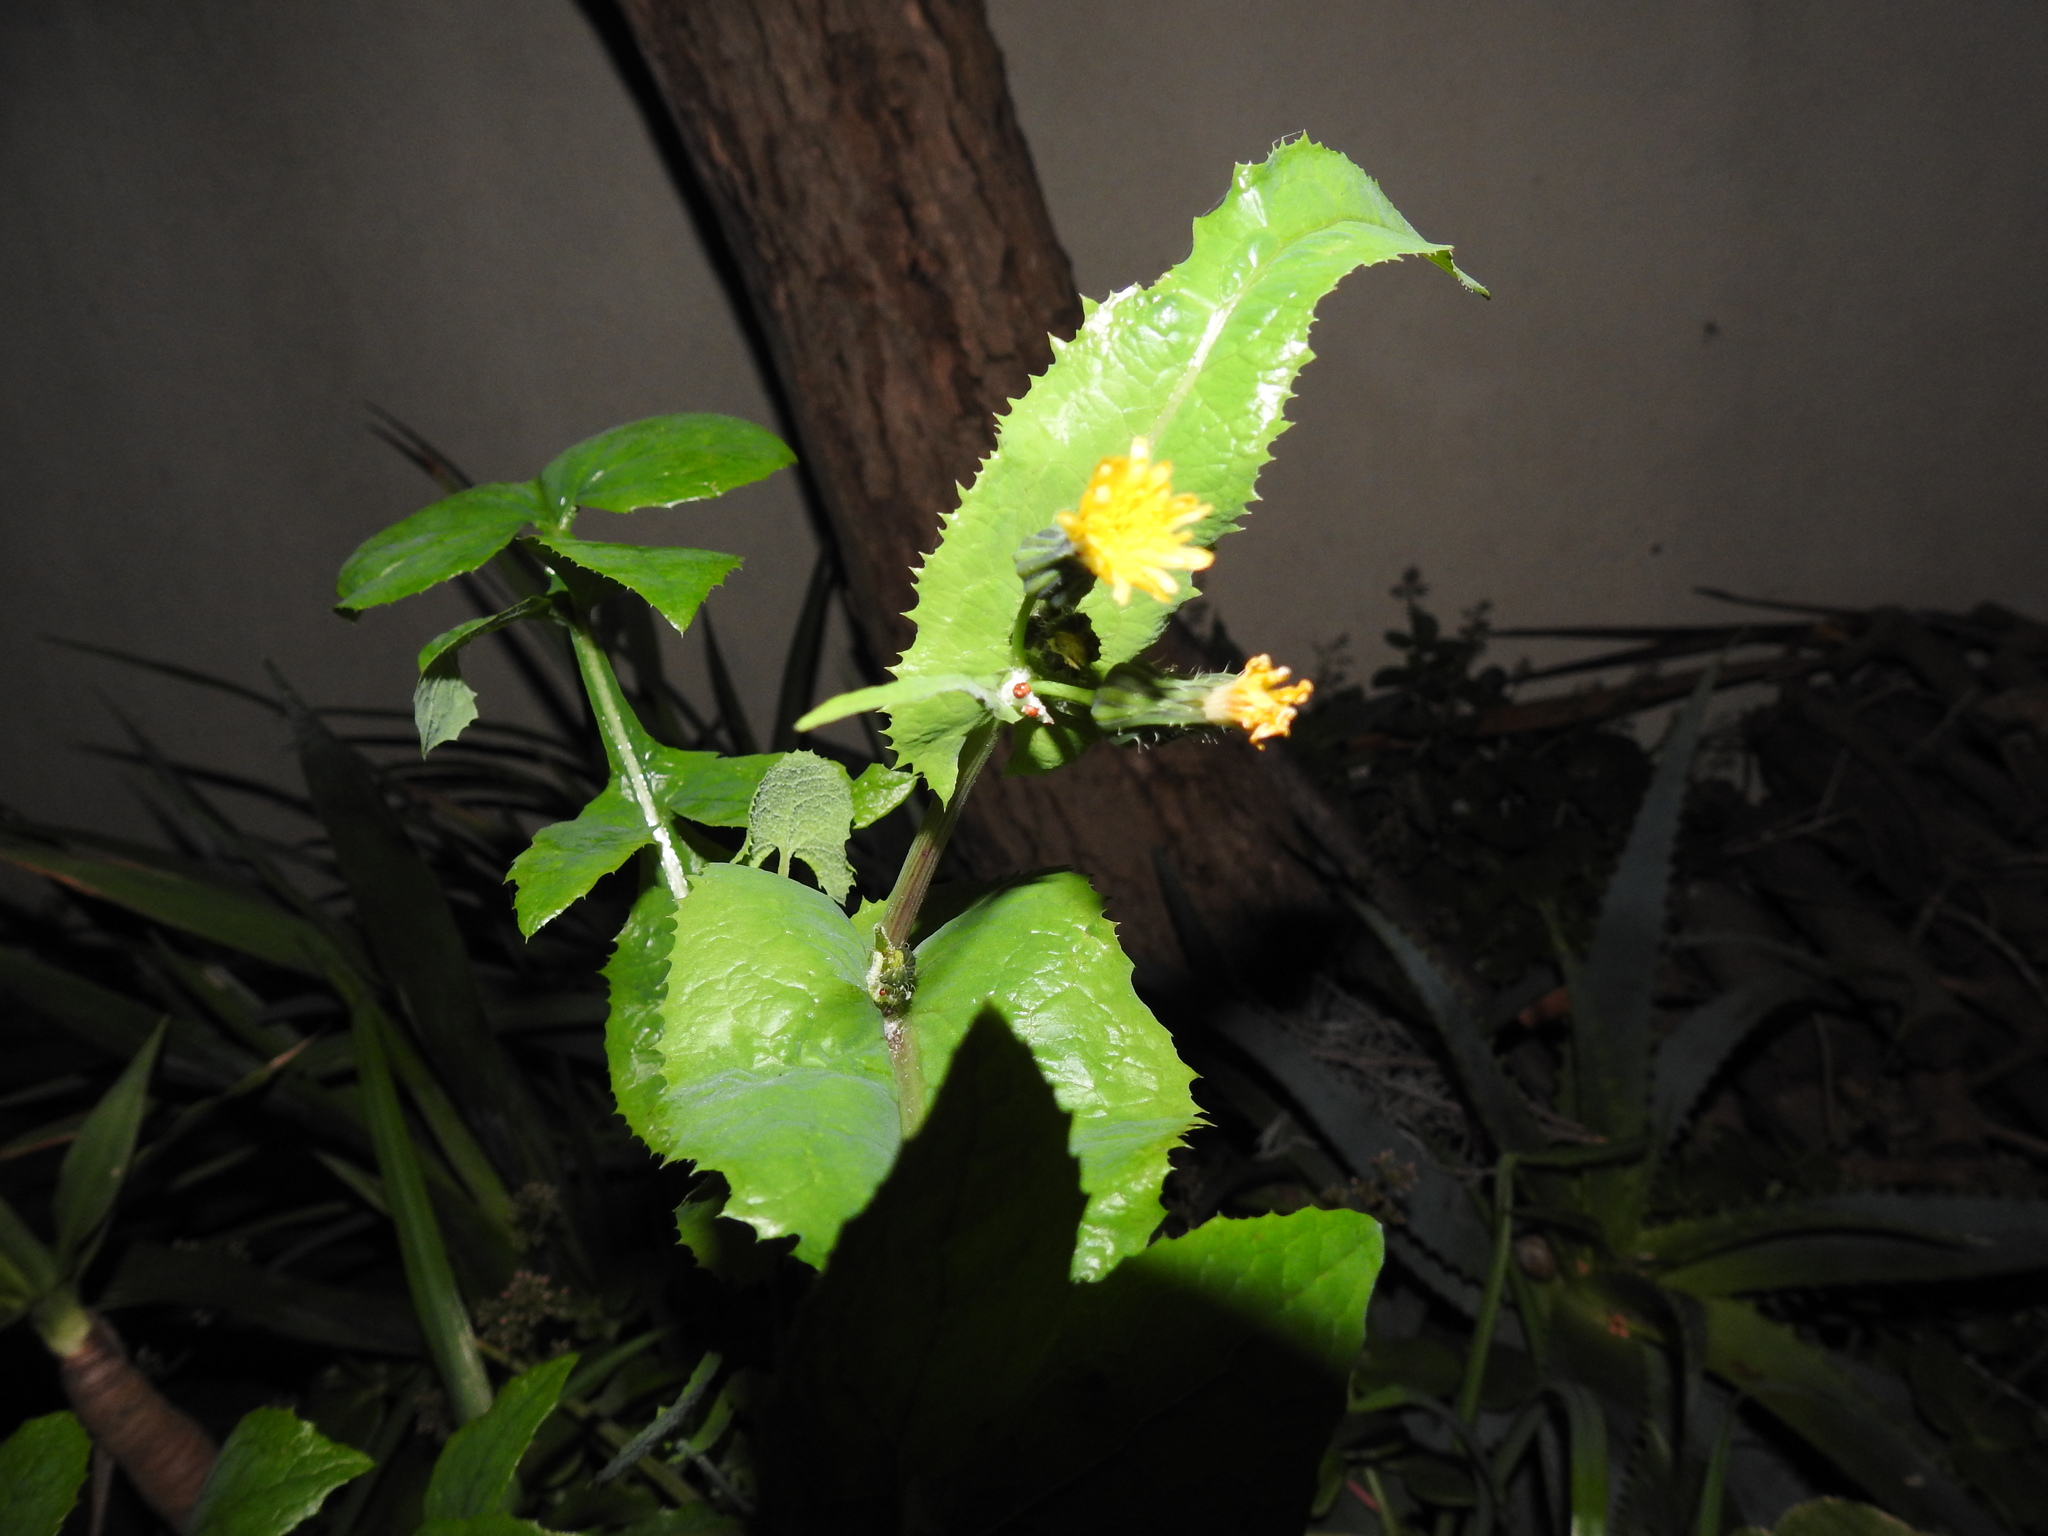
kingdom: Plantae
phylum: Tracheophyta
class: Magnoliopsida
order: Asterales
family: Asteraceae
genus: Sonchus
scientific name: Sonchus oleraceus
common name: Common sowthistle
